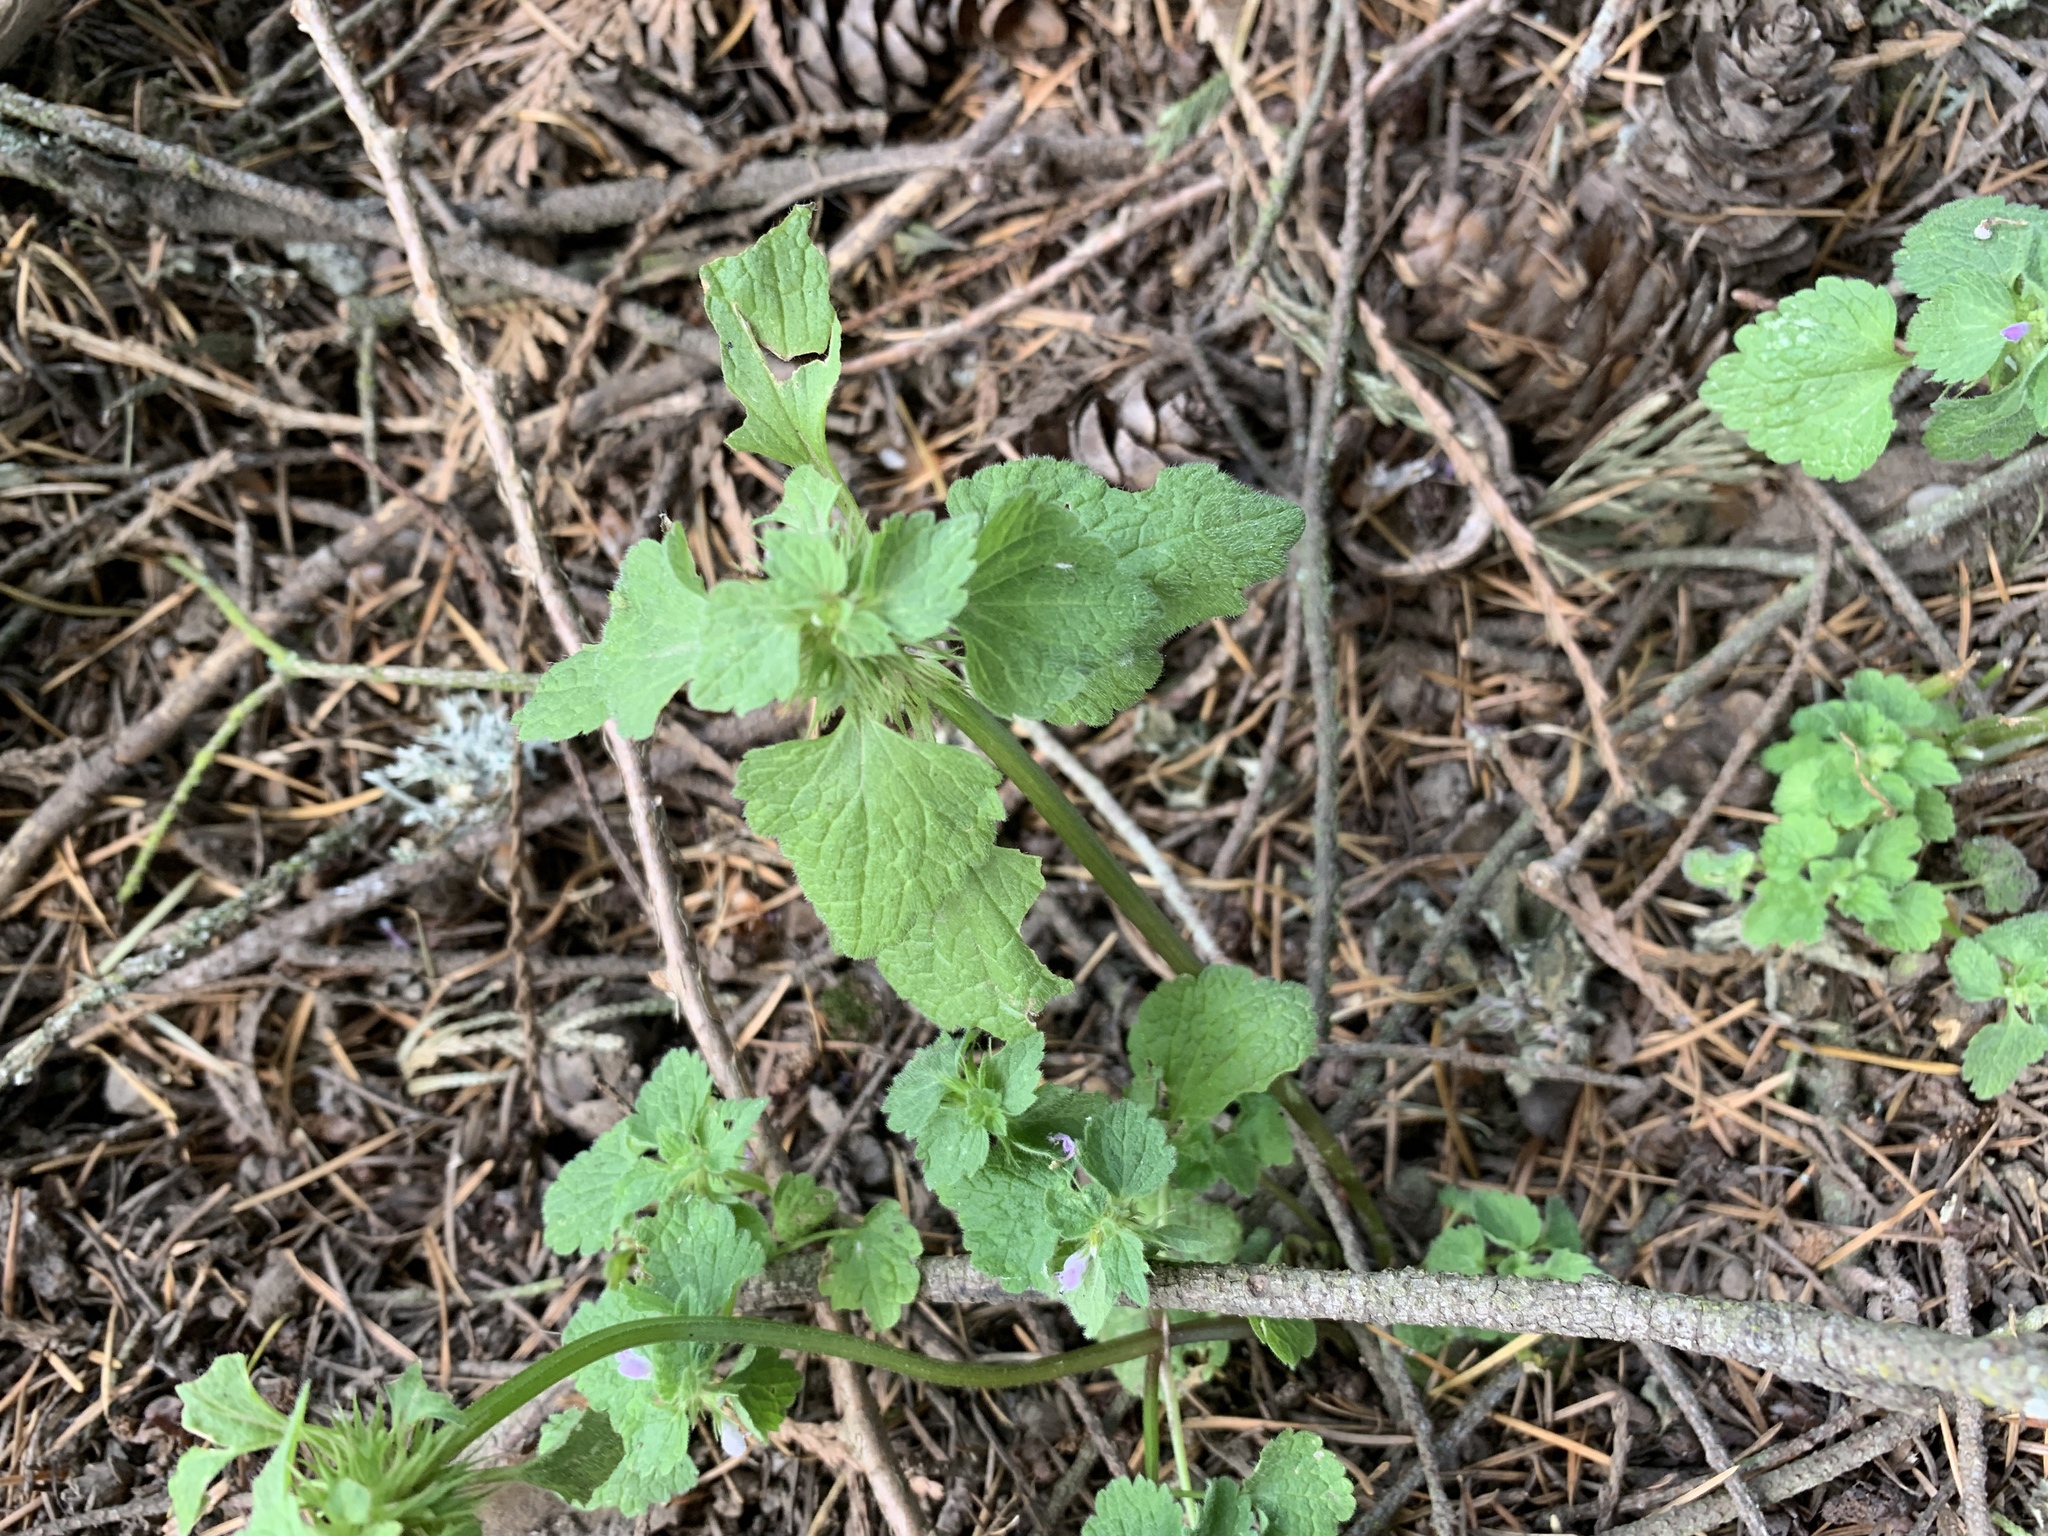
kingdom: Plantae
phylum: Tracheophyta
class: Magnoliopsida
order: Lamiales
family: Lamiaceae
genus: Lamium
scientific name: Lamium purpureum
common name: Red dead-nettle
